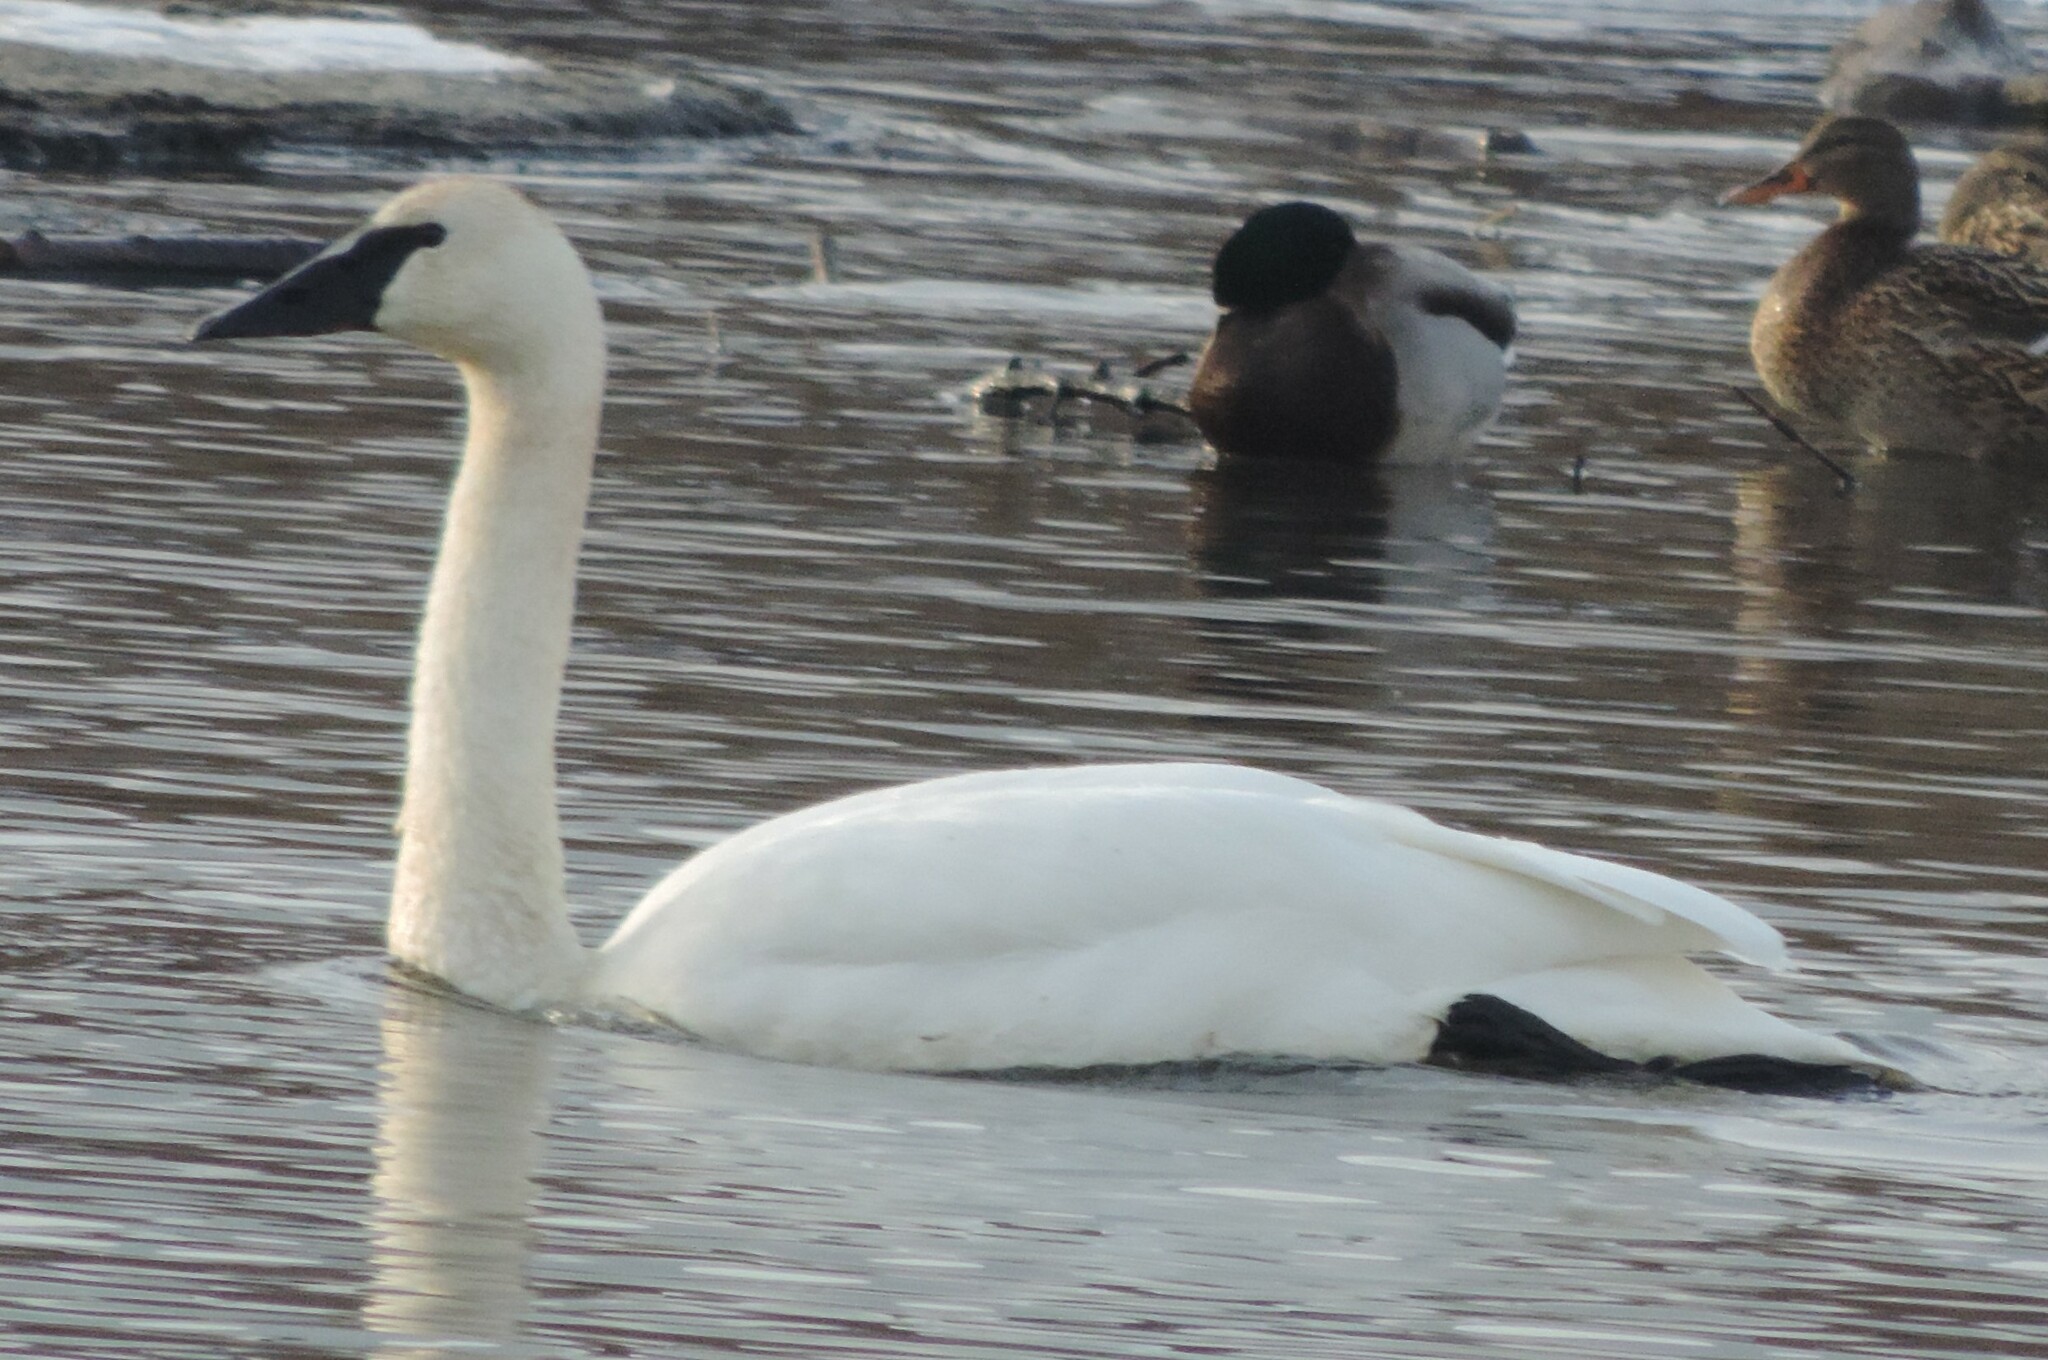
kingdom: Animalia
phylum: Chordata
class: Aves
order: Anseriformes
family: Anatidae
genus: Cygnus
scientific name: Cygnus buccinator
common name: Trumpeter swan
